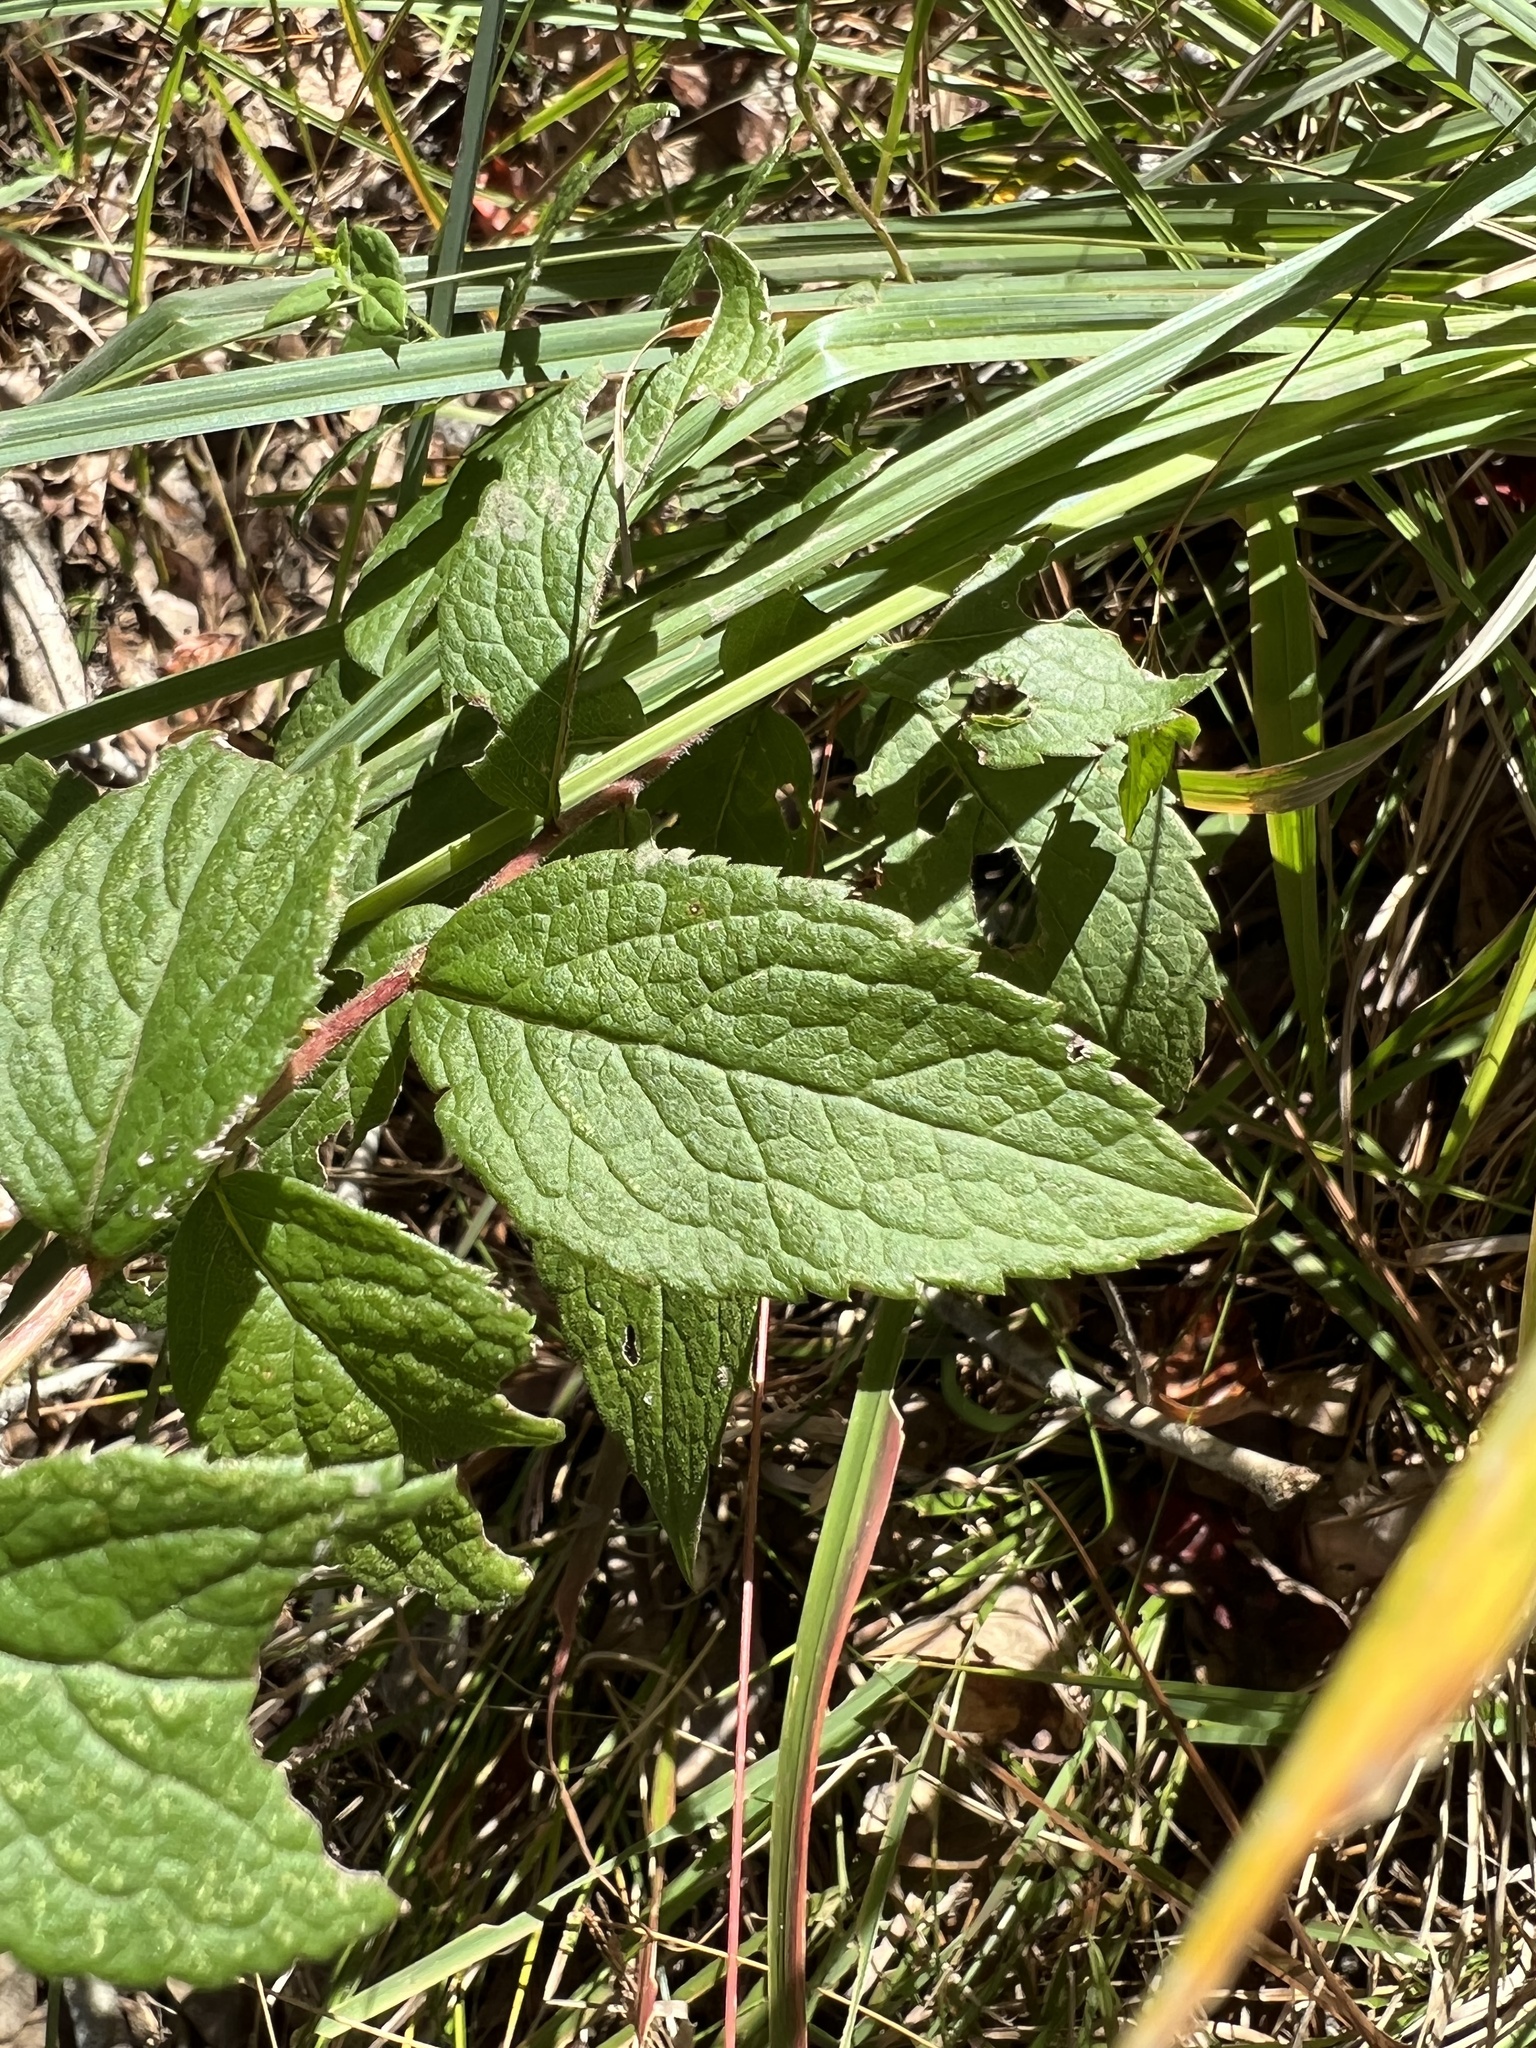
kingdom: Plantae
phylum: Tracheophyta
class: Magnoliopsida
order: Asterales
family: Asteraceae
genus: Solidago
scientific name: Solidago rugosa
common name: Rough-stemmed goldenrod
